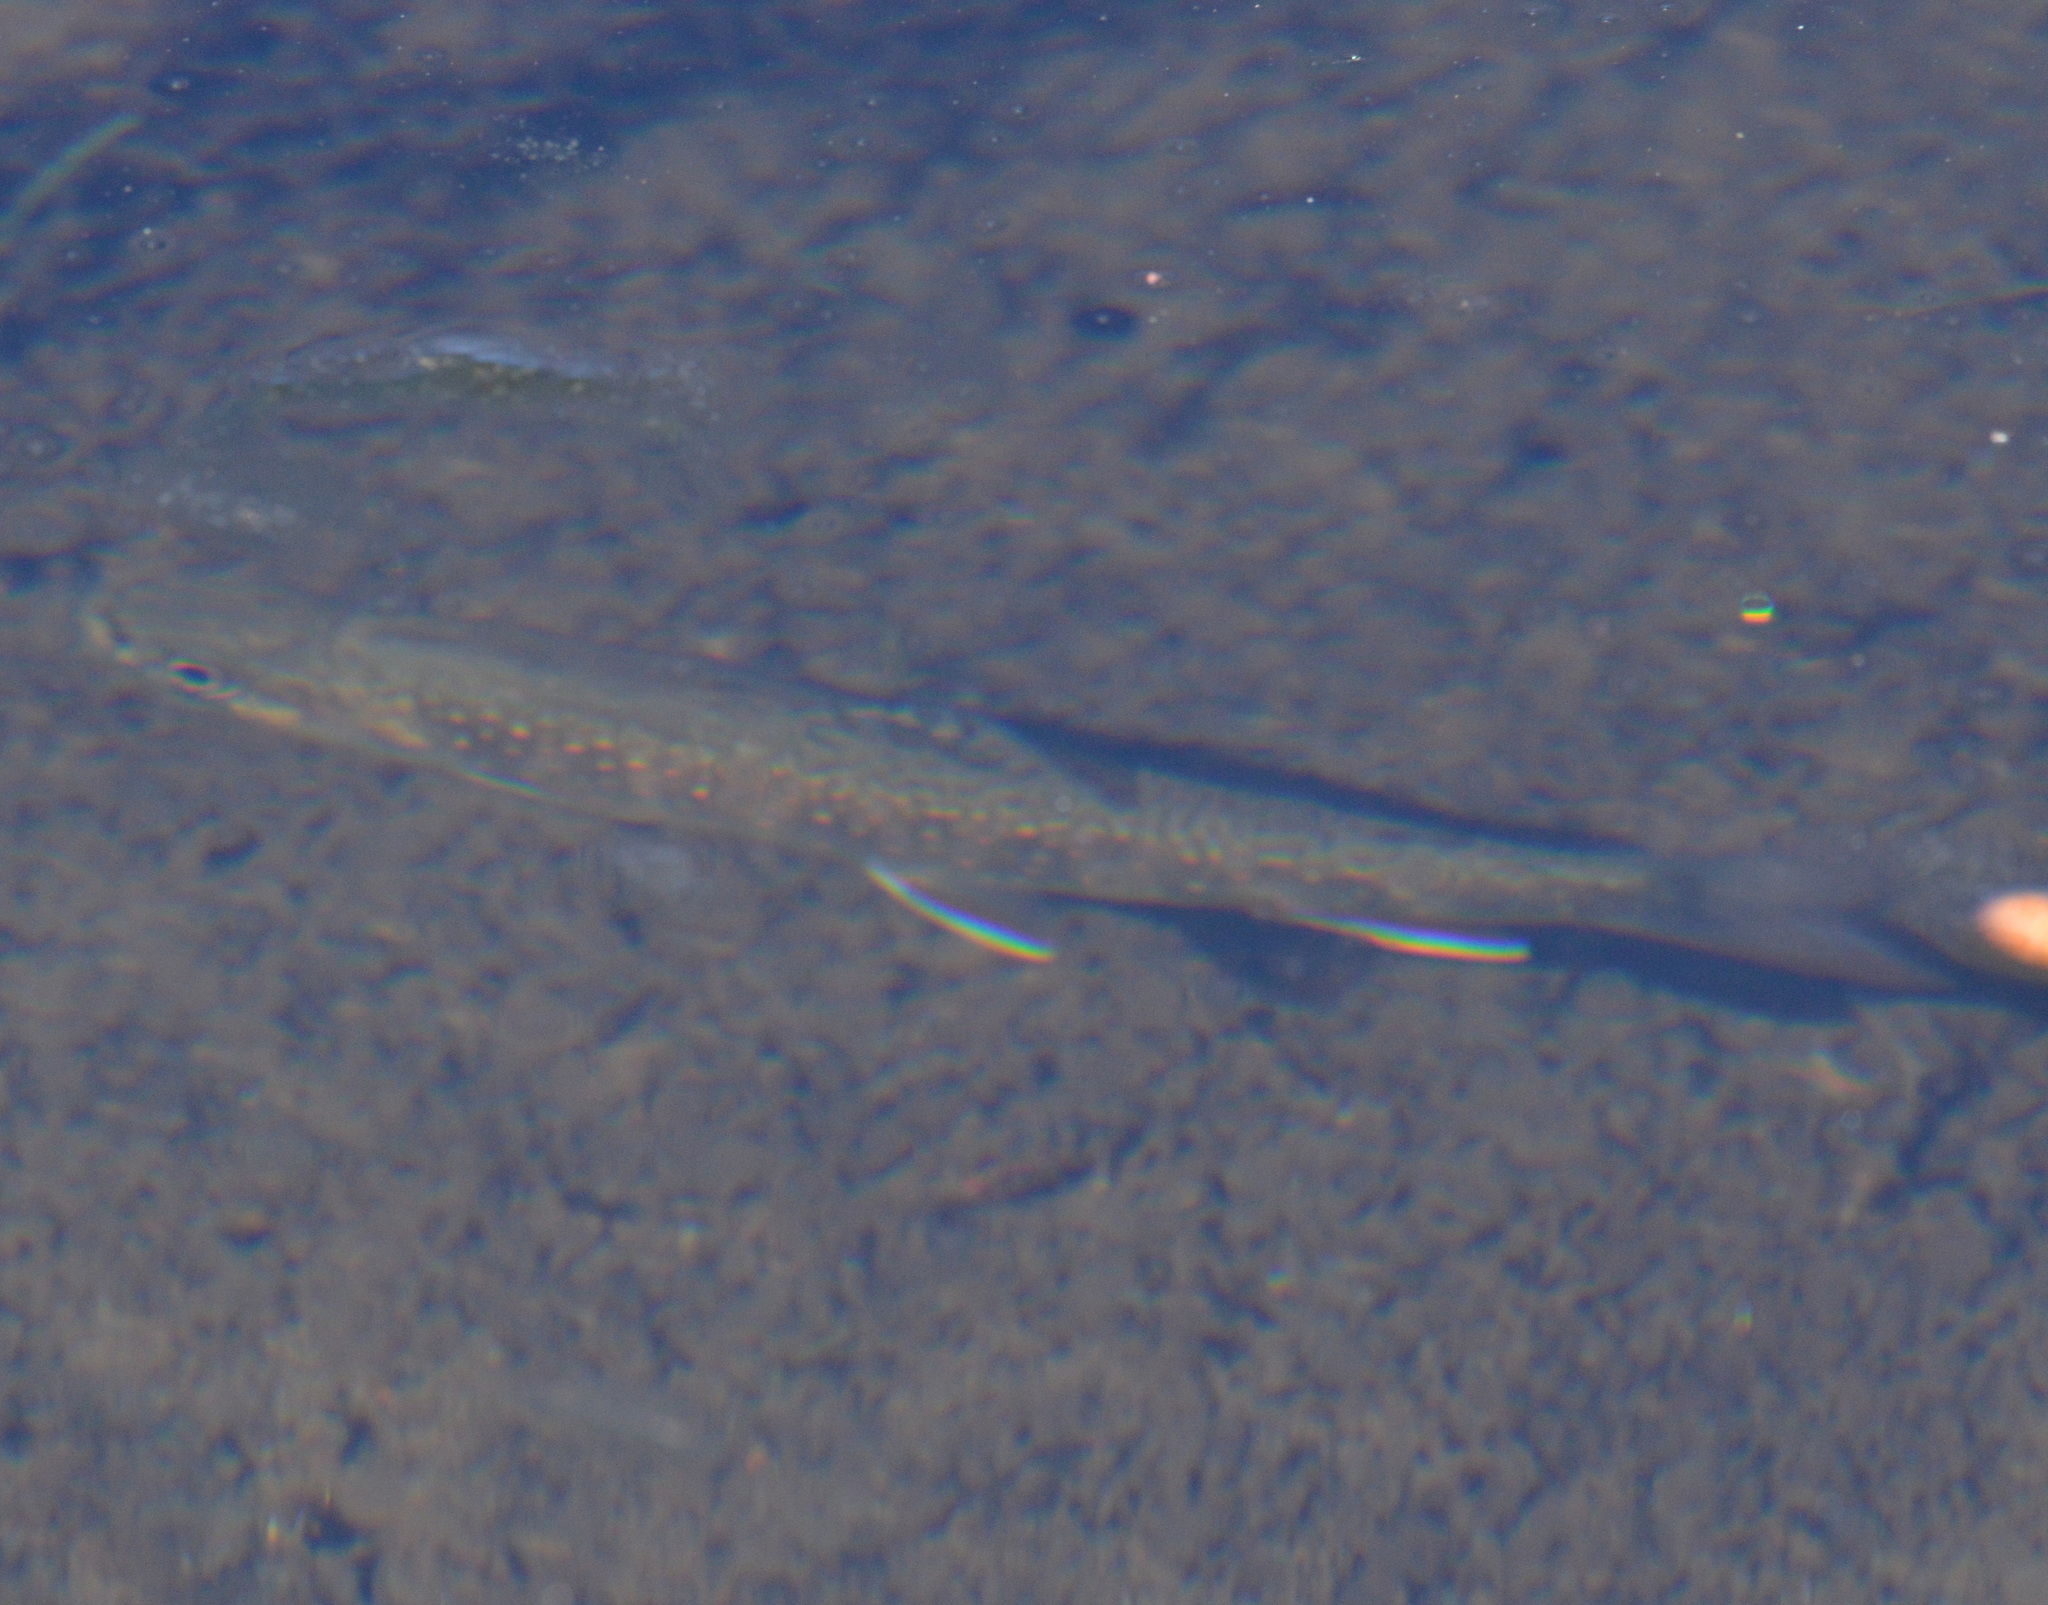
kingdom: Animalia
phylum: Chordata
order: Salmoniformes
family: Salmonidae
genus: Salvelinus
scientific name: Salvelinus fontinalis
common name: Brook trout
